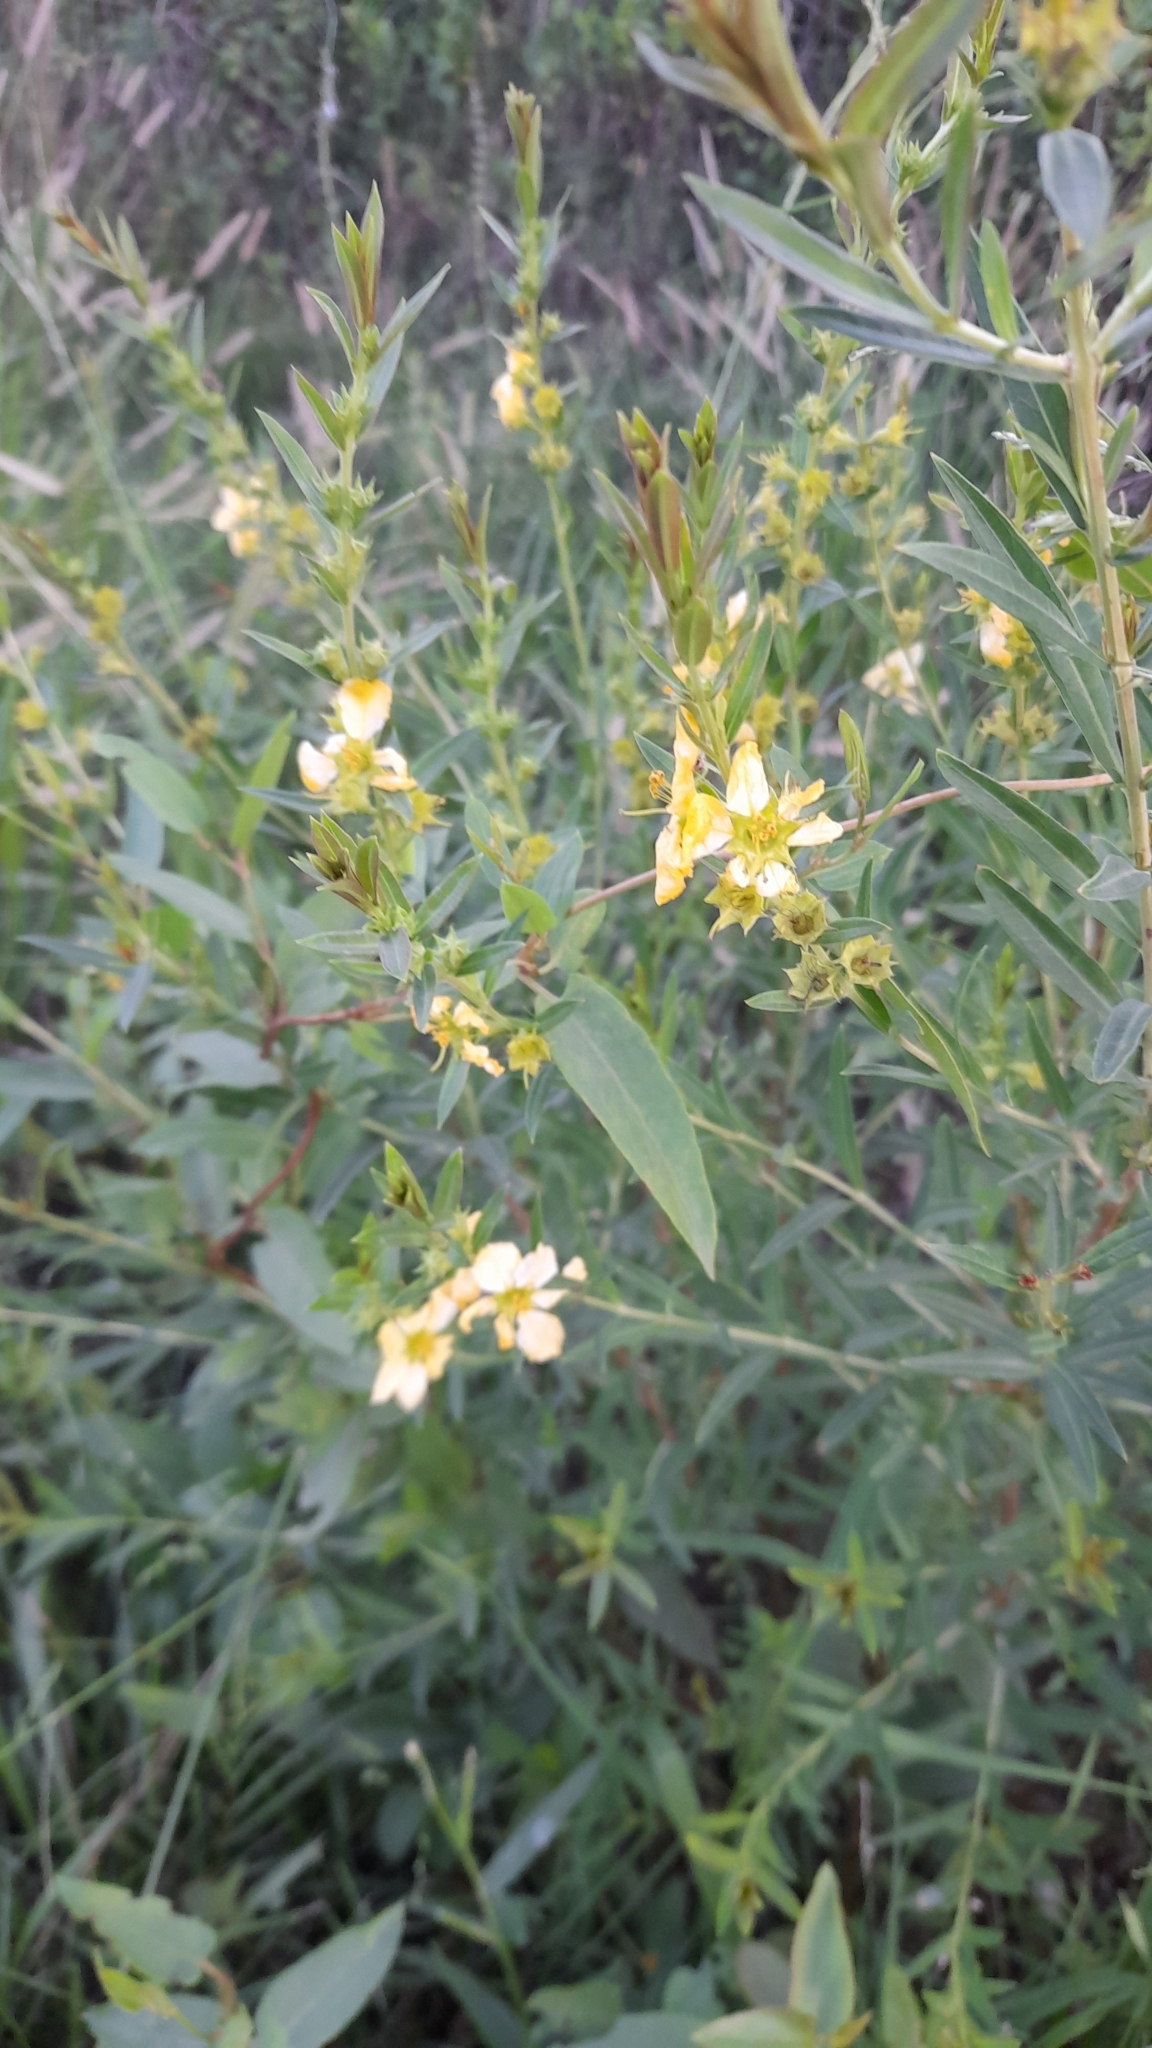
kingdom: Plantae
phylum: Tracheophyta
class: Magnoliopsida
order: Myrtales
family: Lythraceae
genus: Heimia
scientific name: Heimia salicifolia
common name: Willow-leaf heimia
